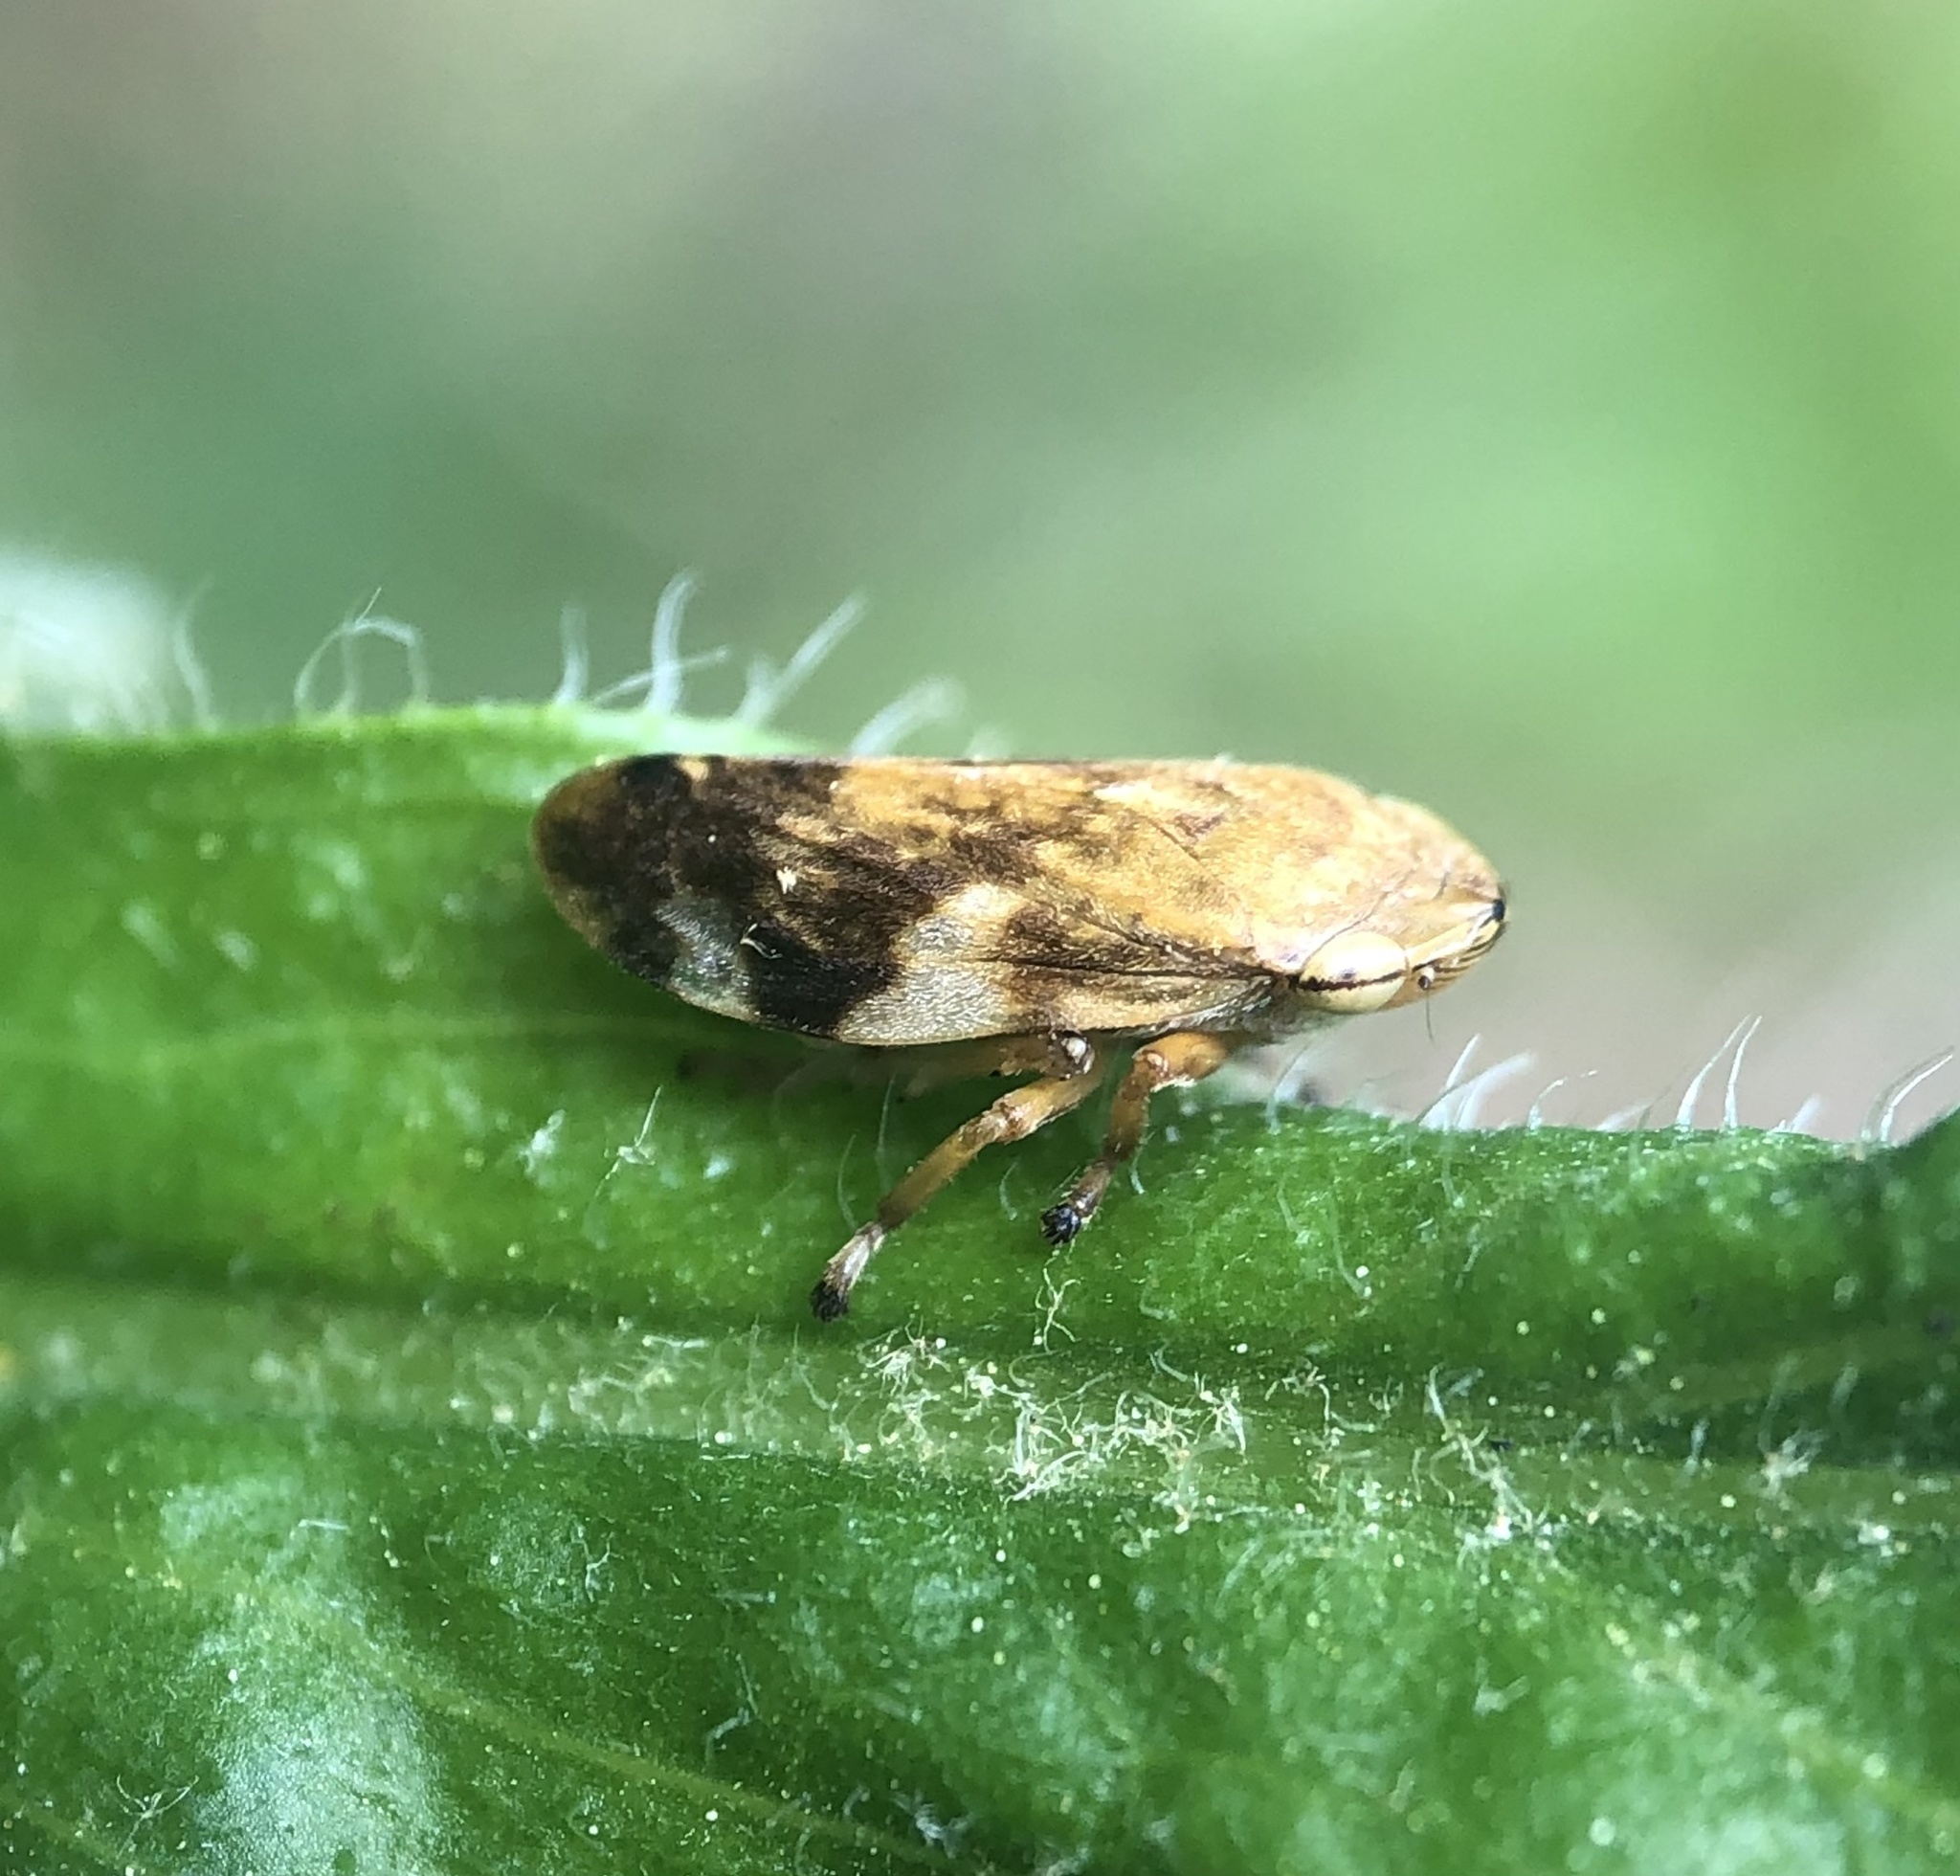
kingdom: Animalia
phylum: Arthropoda
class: Insecta
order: Hemiptera
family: Aphrophoridae
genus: Philaenus
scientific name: Philaenus spumarius
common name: Meadow spittlebug
